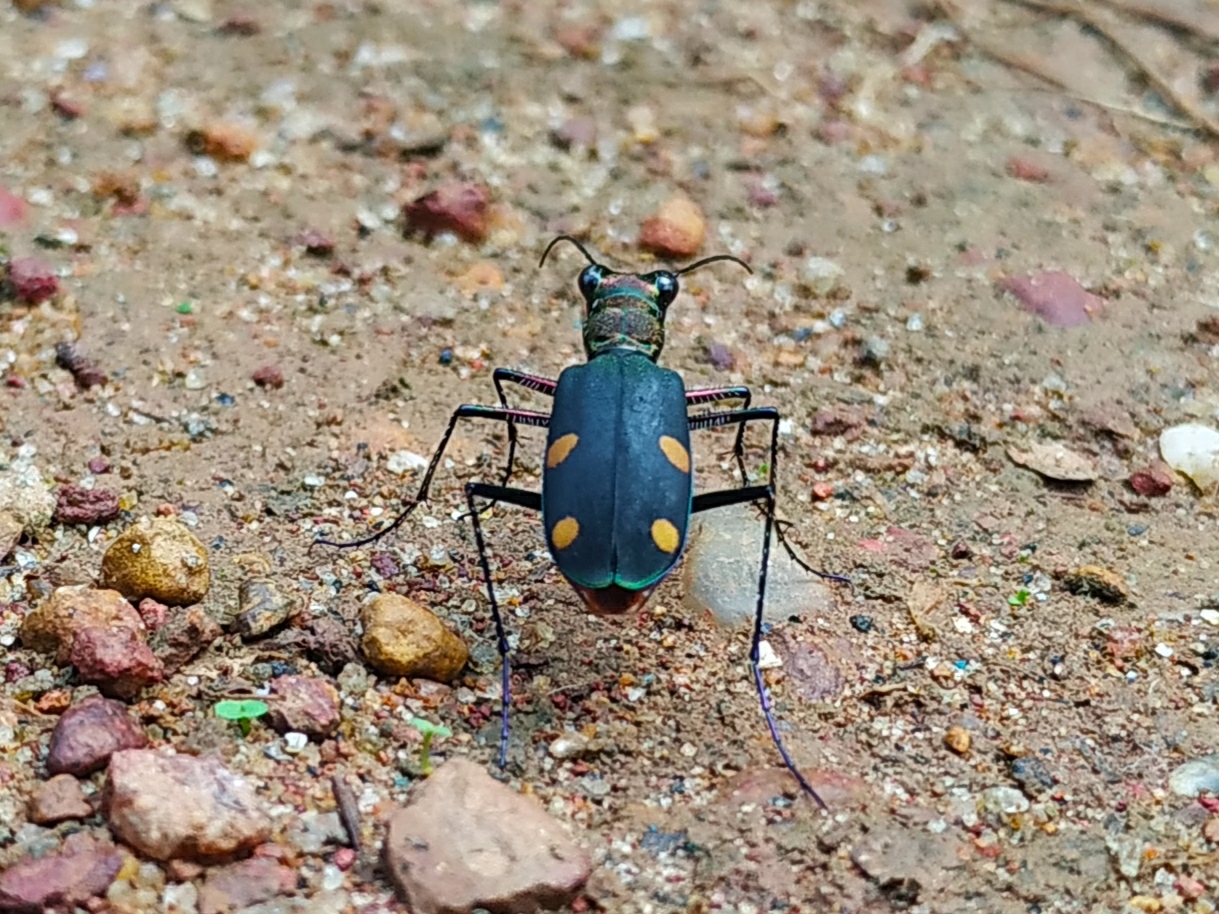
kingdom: Animalia
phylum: Arthropoda
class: Insecta
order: Coleoptera
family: Carabidae
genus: Cicindela
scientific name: Cicindela bicolor
